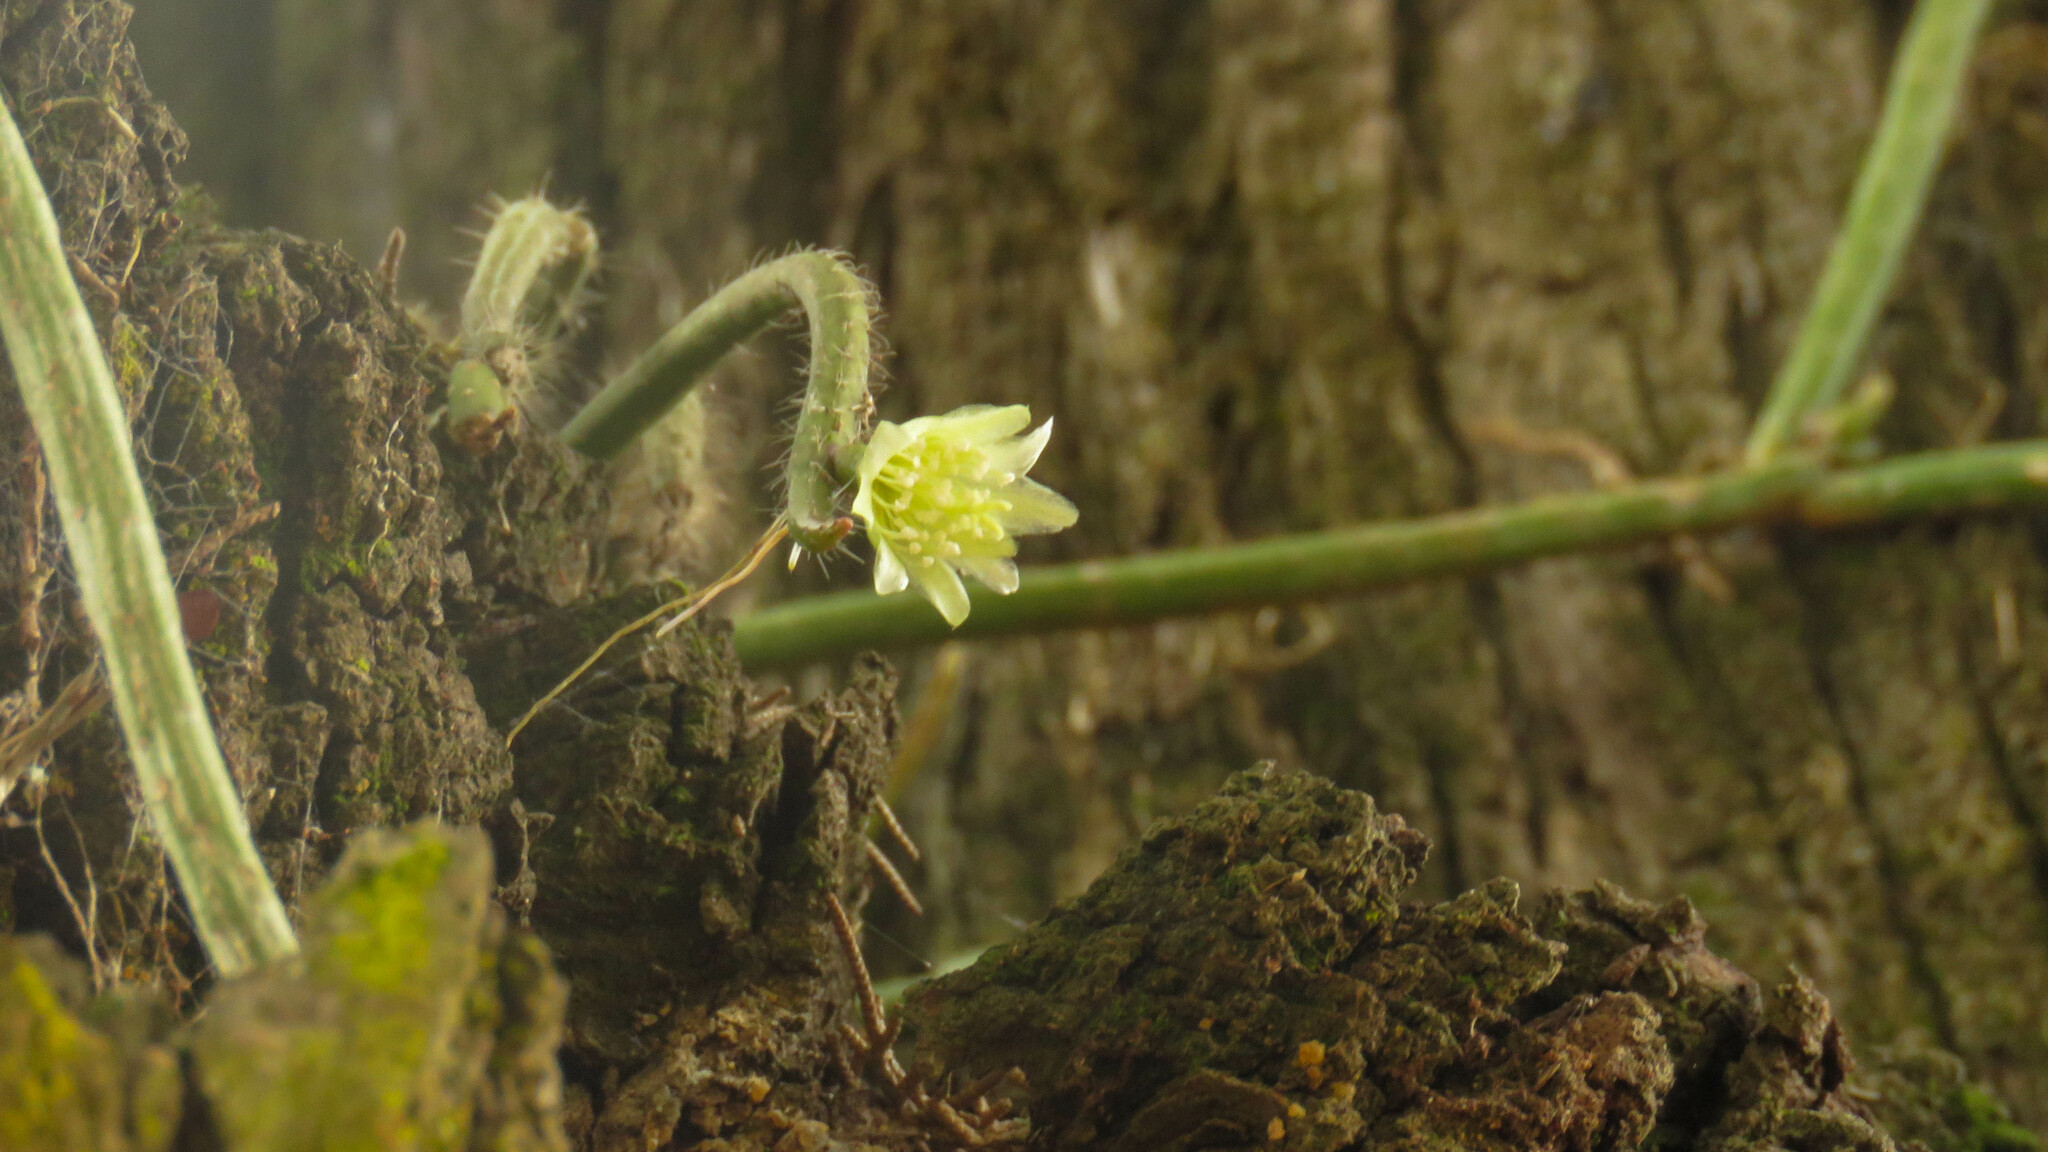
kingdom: Plantae
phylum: Tracheophyta
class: Magnoliopsida
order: Caryophyllales
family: Cactaceae
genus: Lepismium
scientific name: Lepismium lumbricoides
